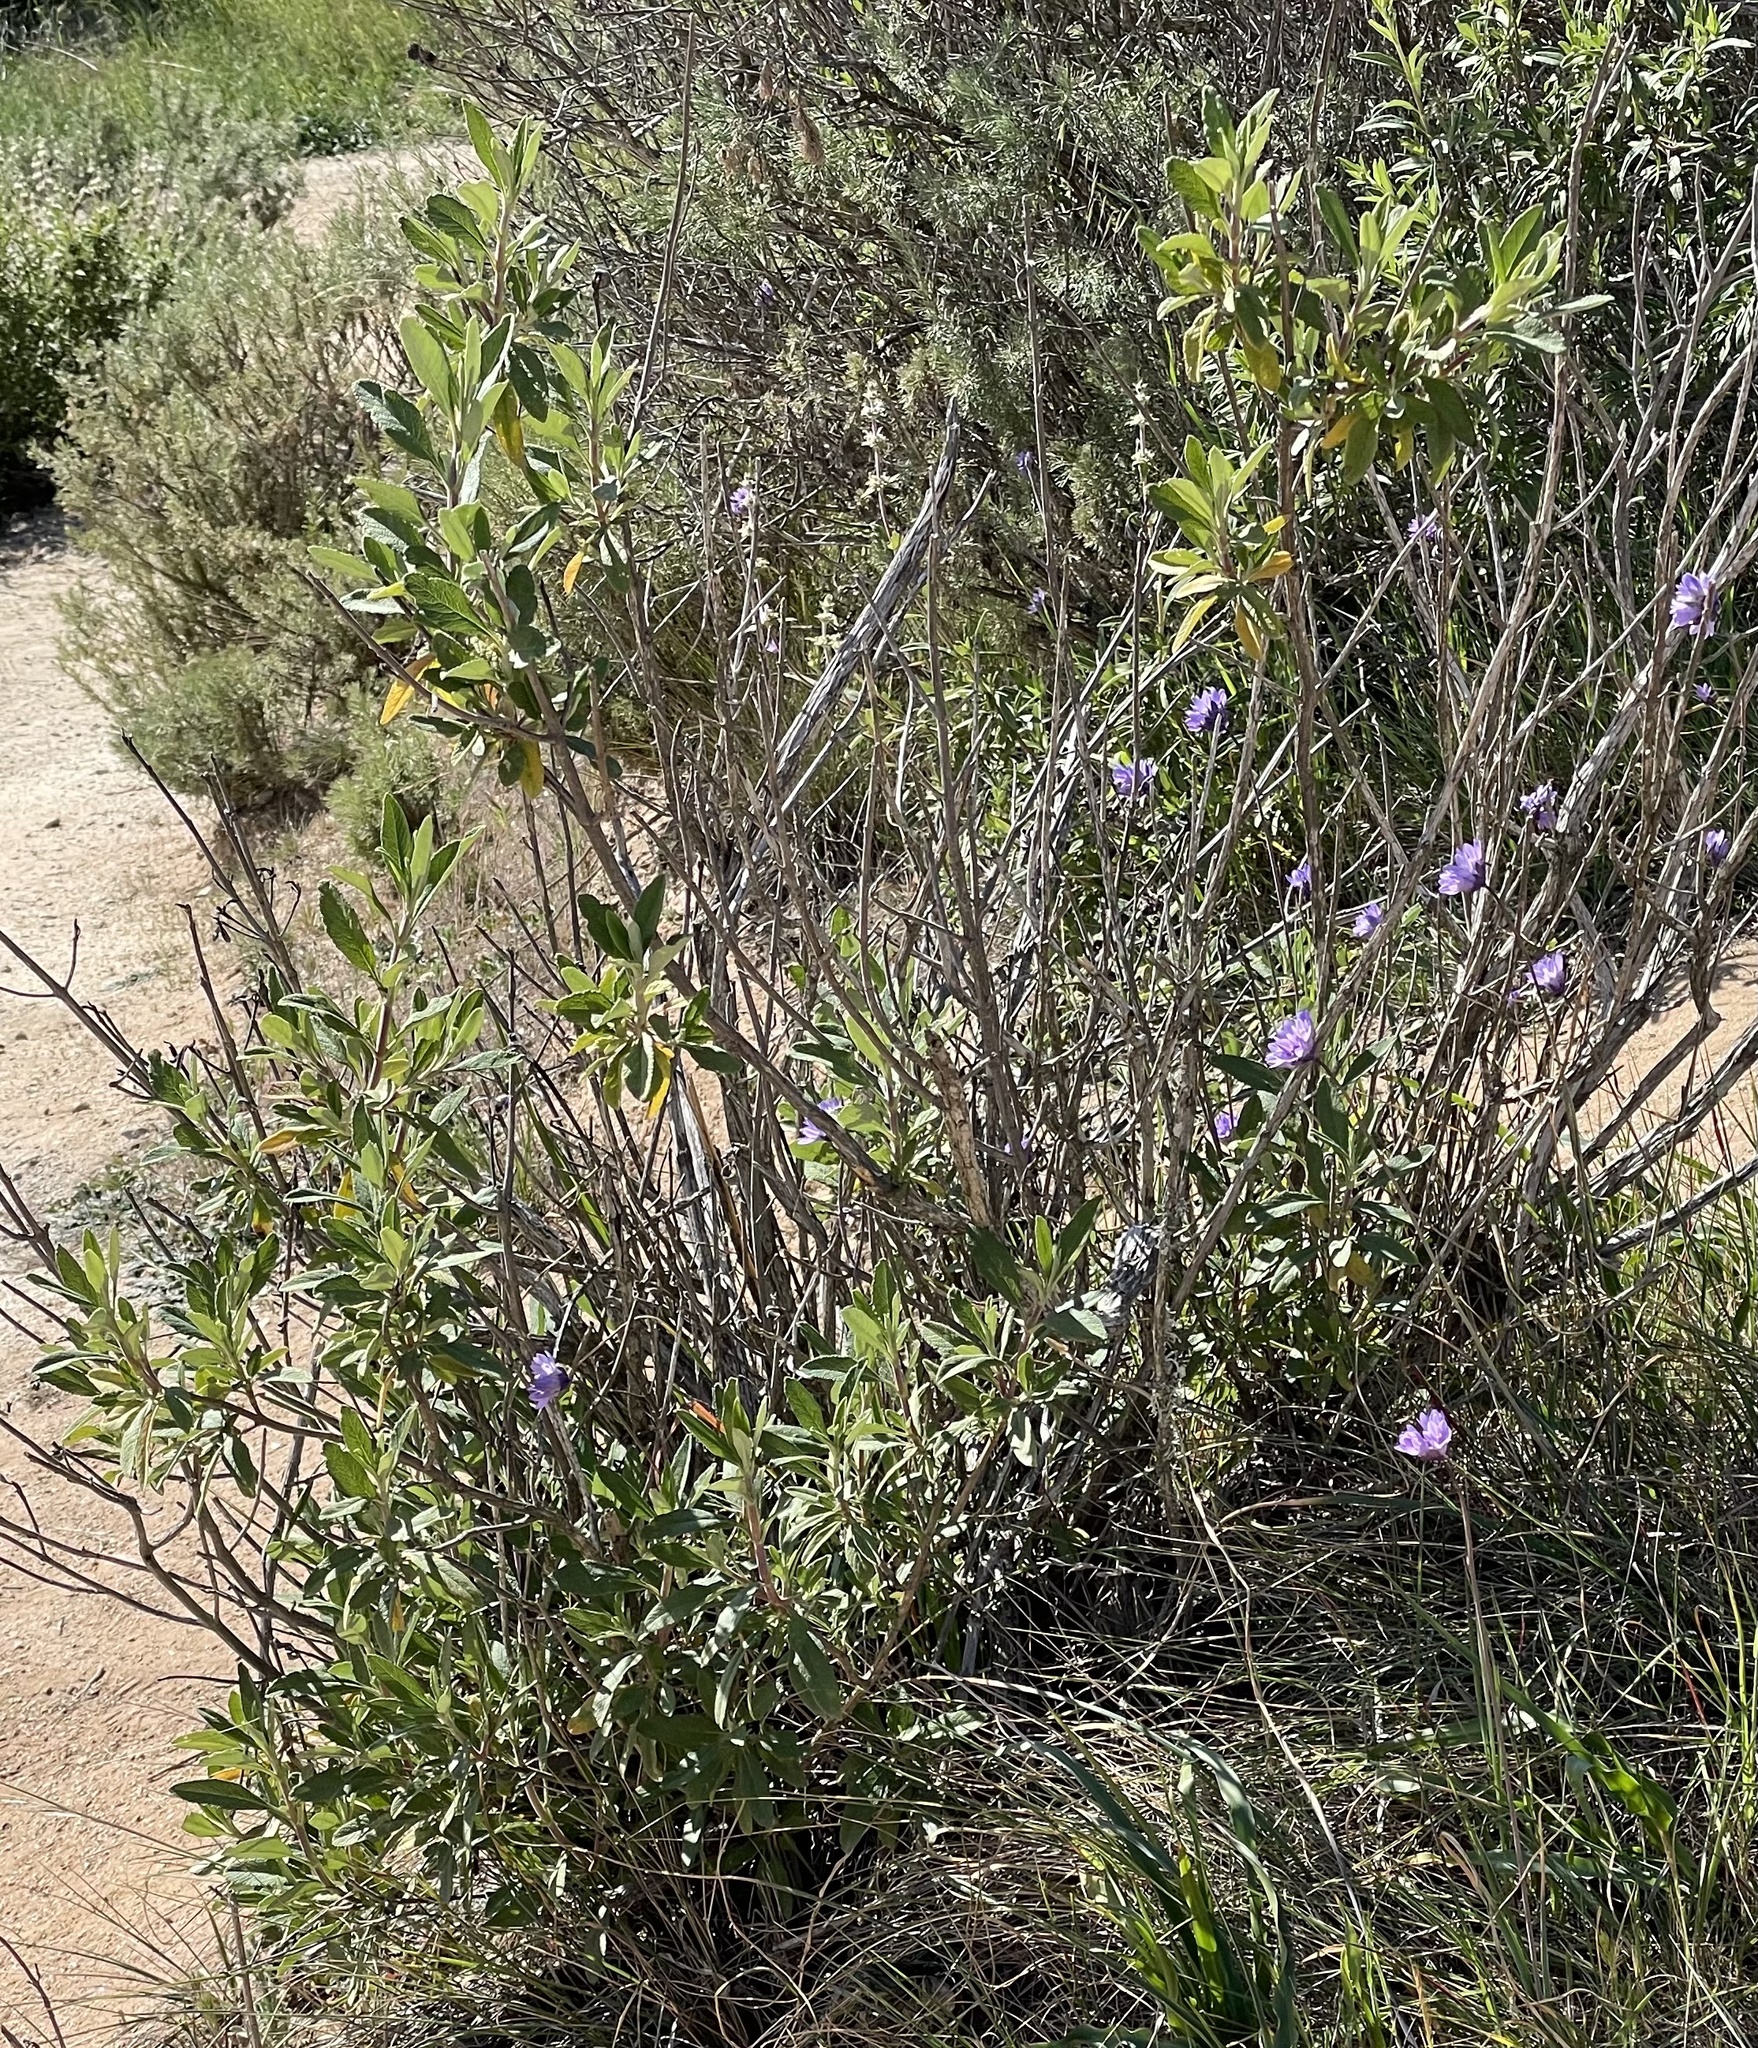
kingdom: Plantae
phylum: Tracheophyta
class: Magnoliopsida
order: Lamiales
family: Lamiaceae
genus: Salvia
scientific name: Salvia mellifera
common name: Black sage
